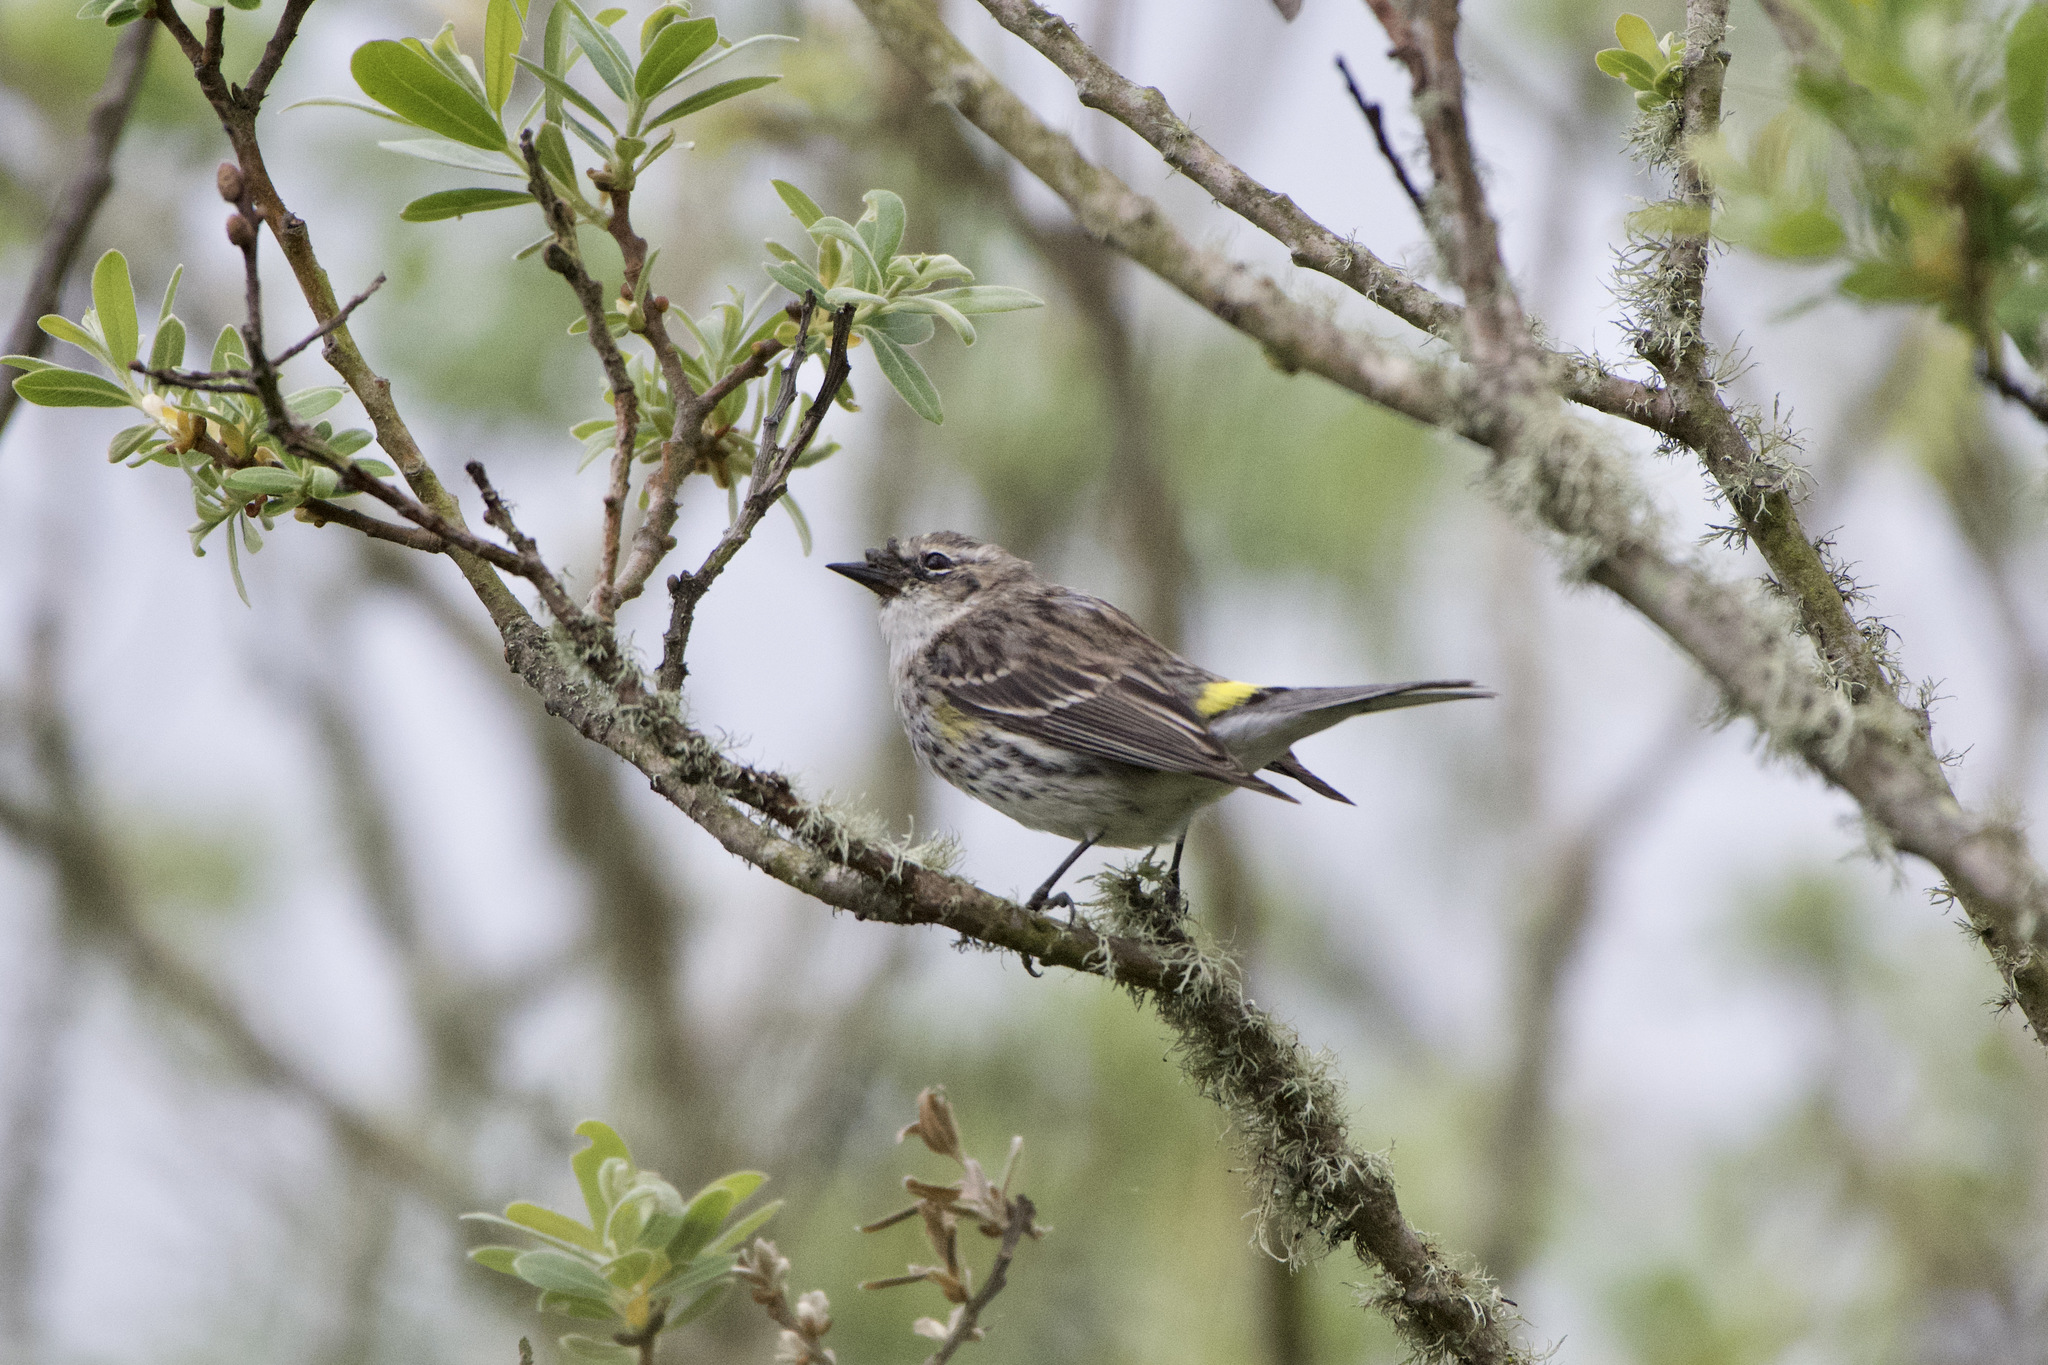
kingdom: Animalia
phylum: Chordata
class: Aves
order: Passeriformes
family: Parulidae
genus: Setophaga
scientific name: Setophaga coronata
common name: Myrtle warbler
